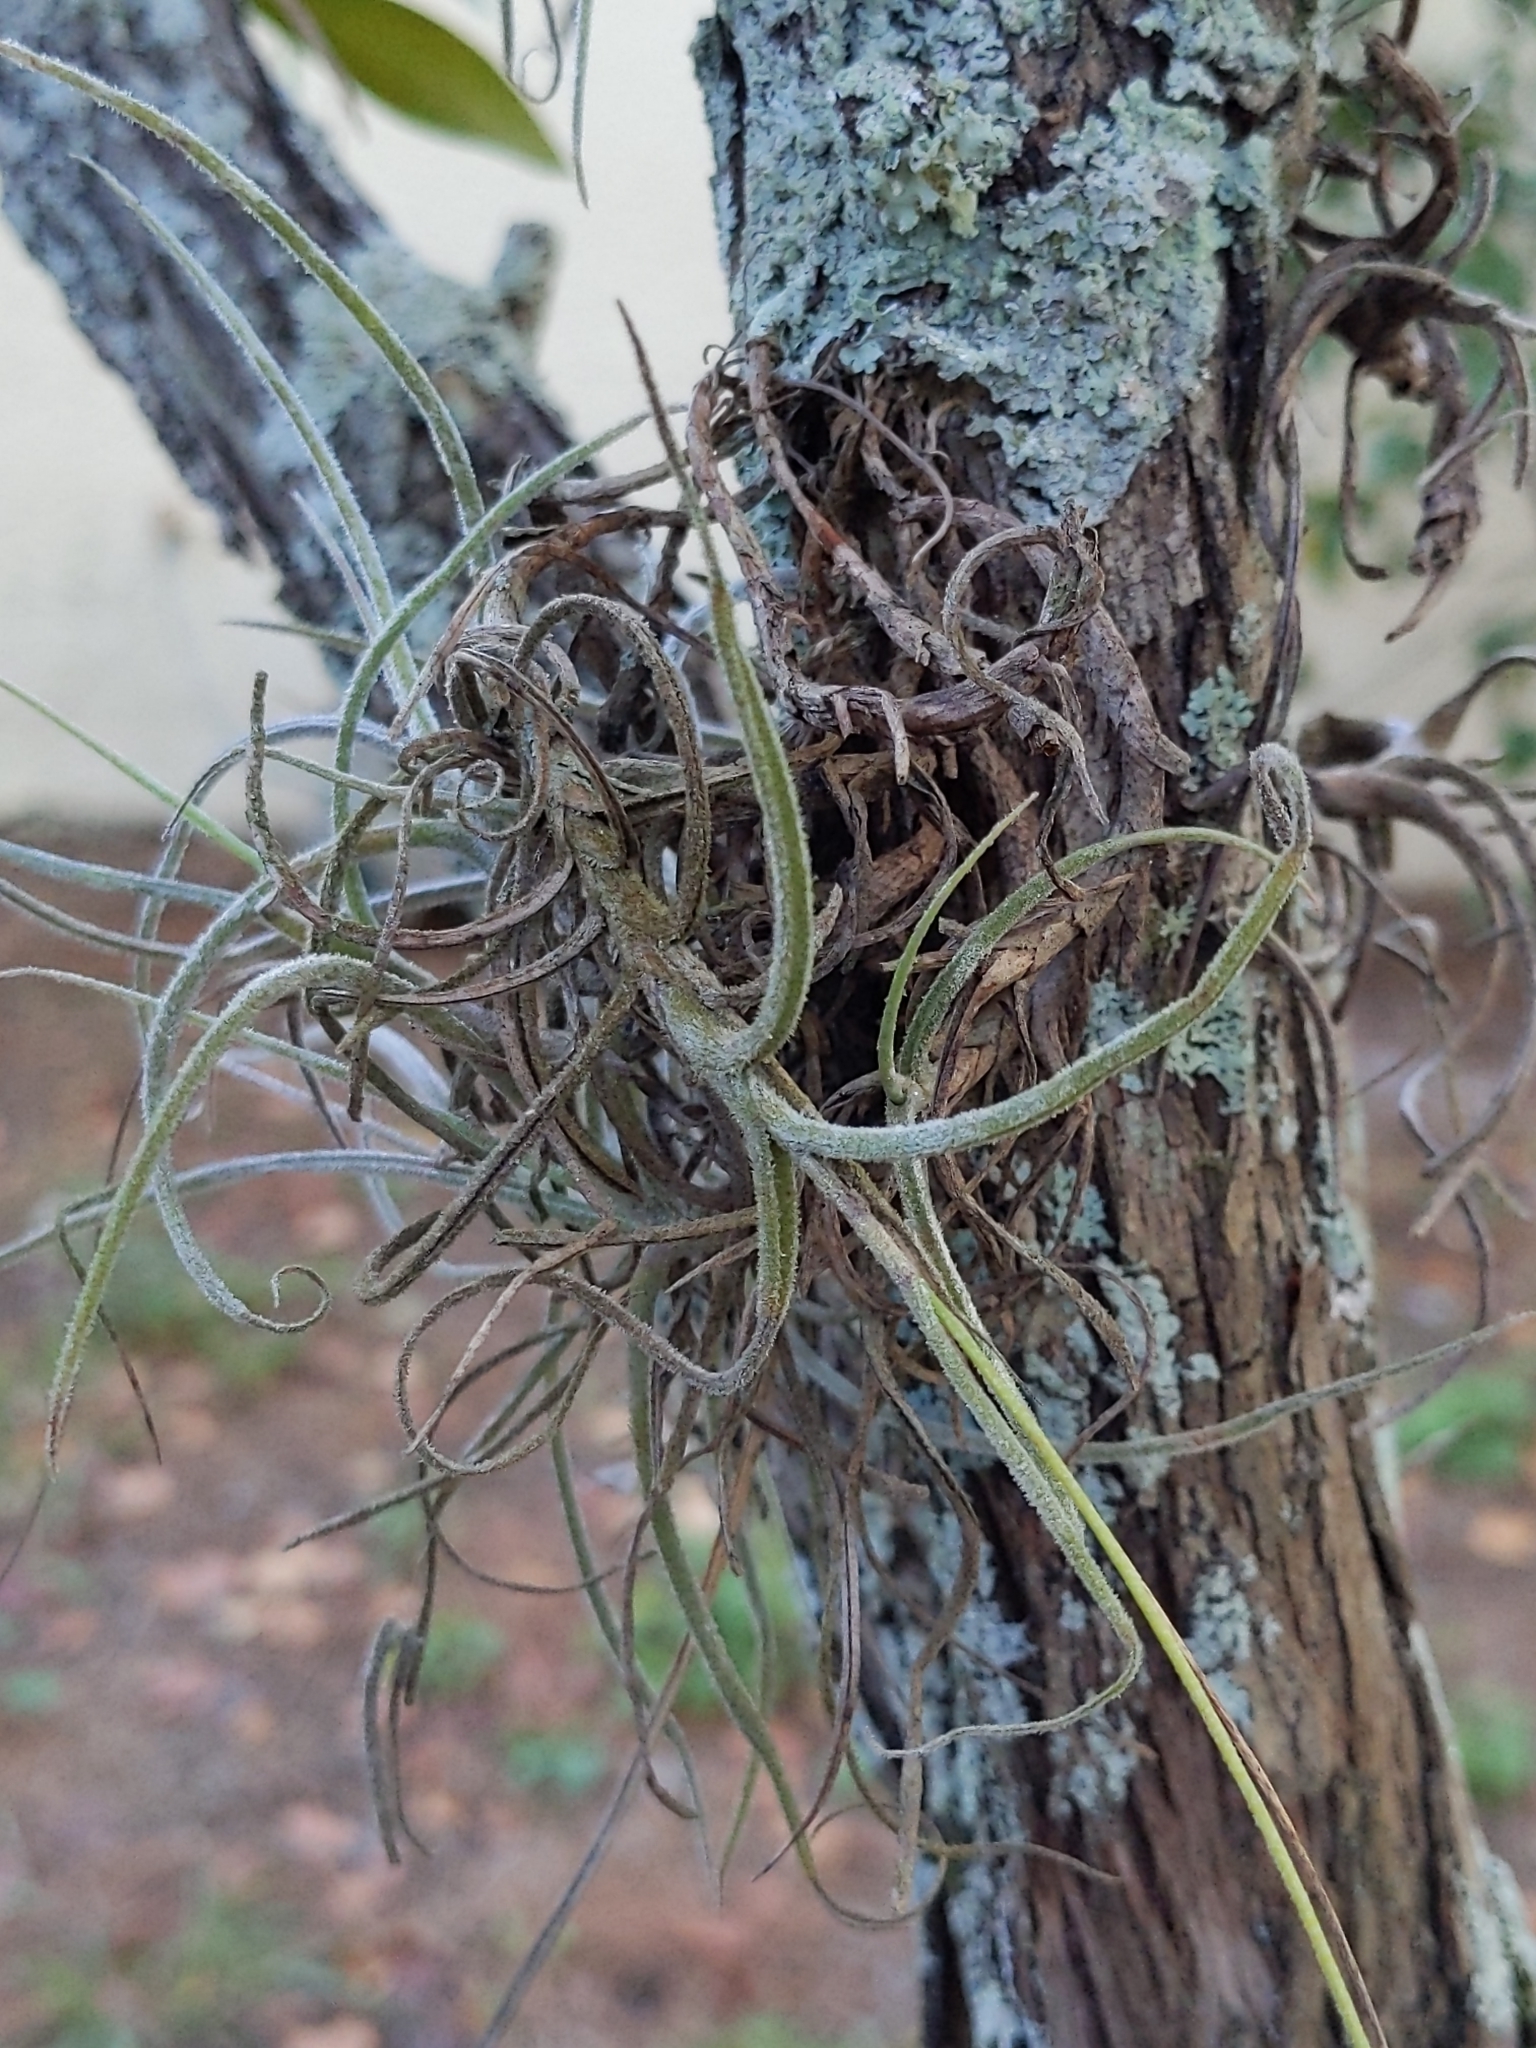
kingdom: Plantae
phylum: Tracheophyta
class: Liliopsida
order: Poales
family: Bromeliaceae
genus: Tillandsia
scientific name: Tillandsia recurvata
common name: Small ballmoss
